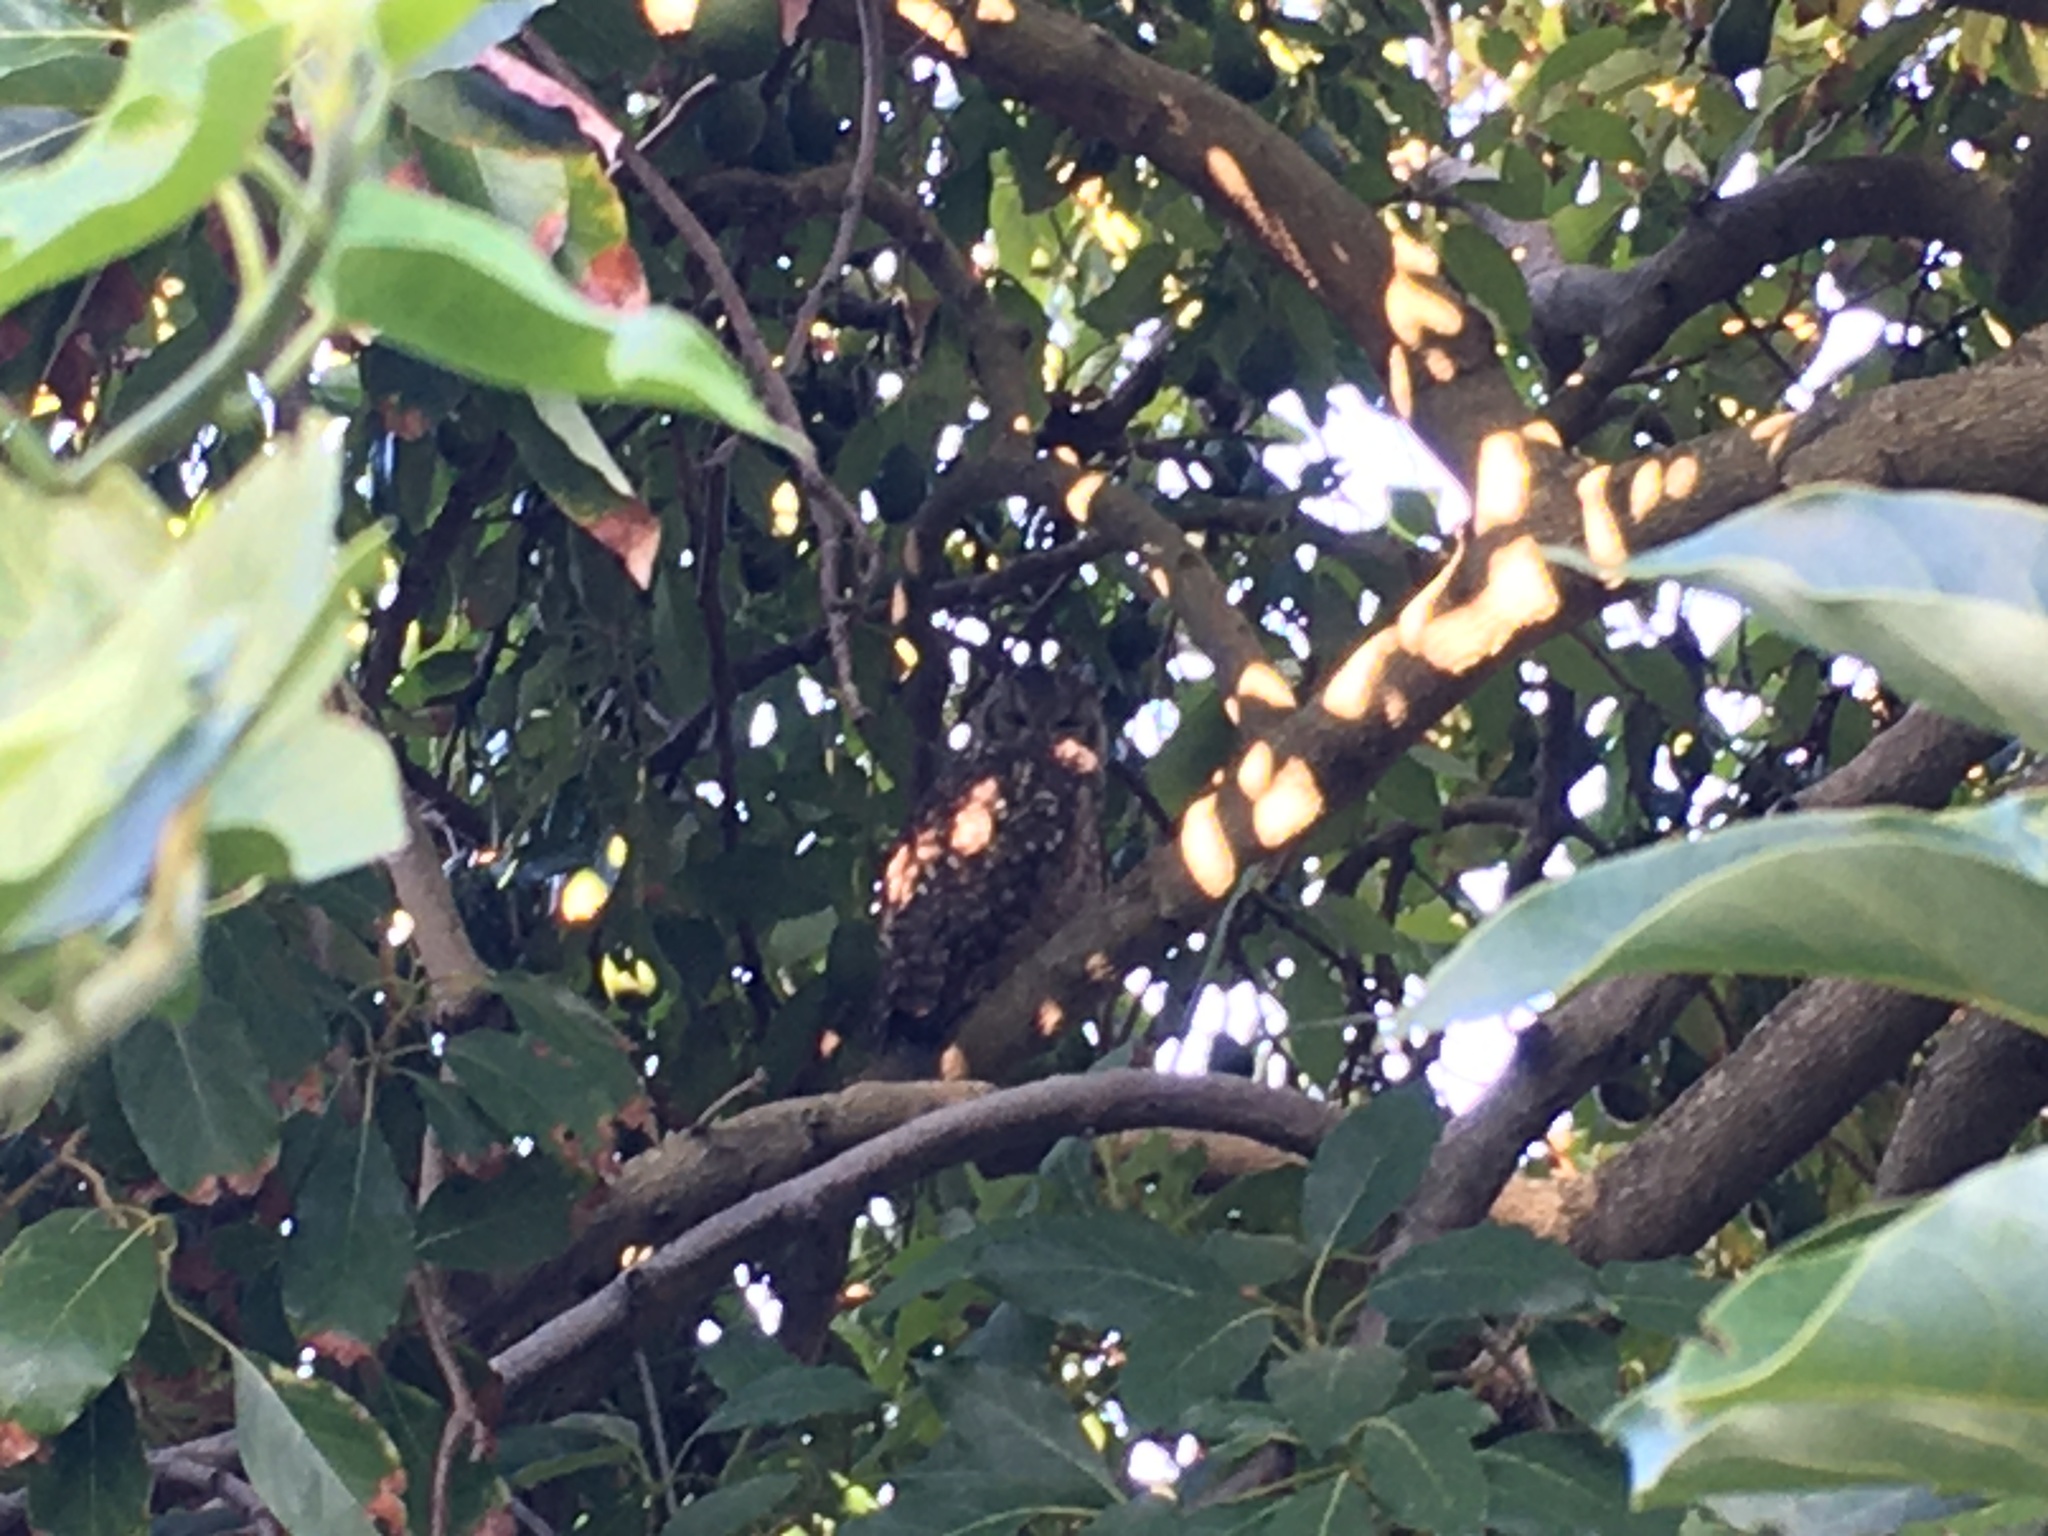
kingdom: Animalia
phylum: Chordata
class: Aves
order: Strigiformes
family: Strigidae
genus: Bubo
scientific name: Bubo africanus
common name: Spotted eagle-owl
